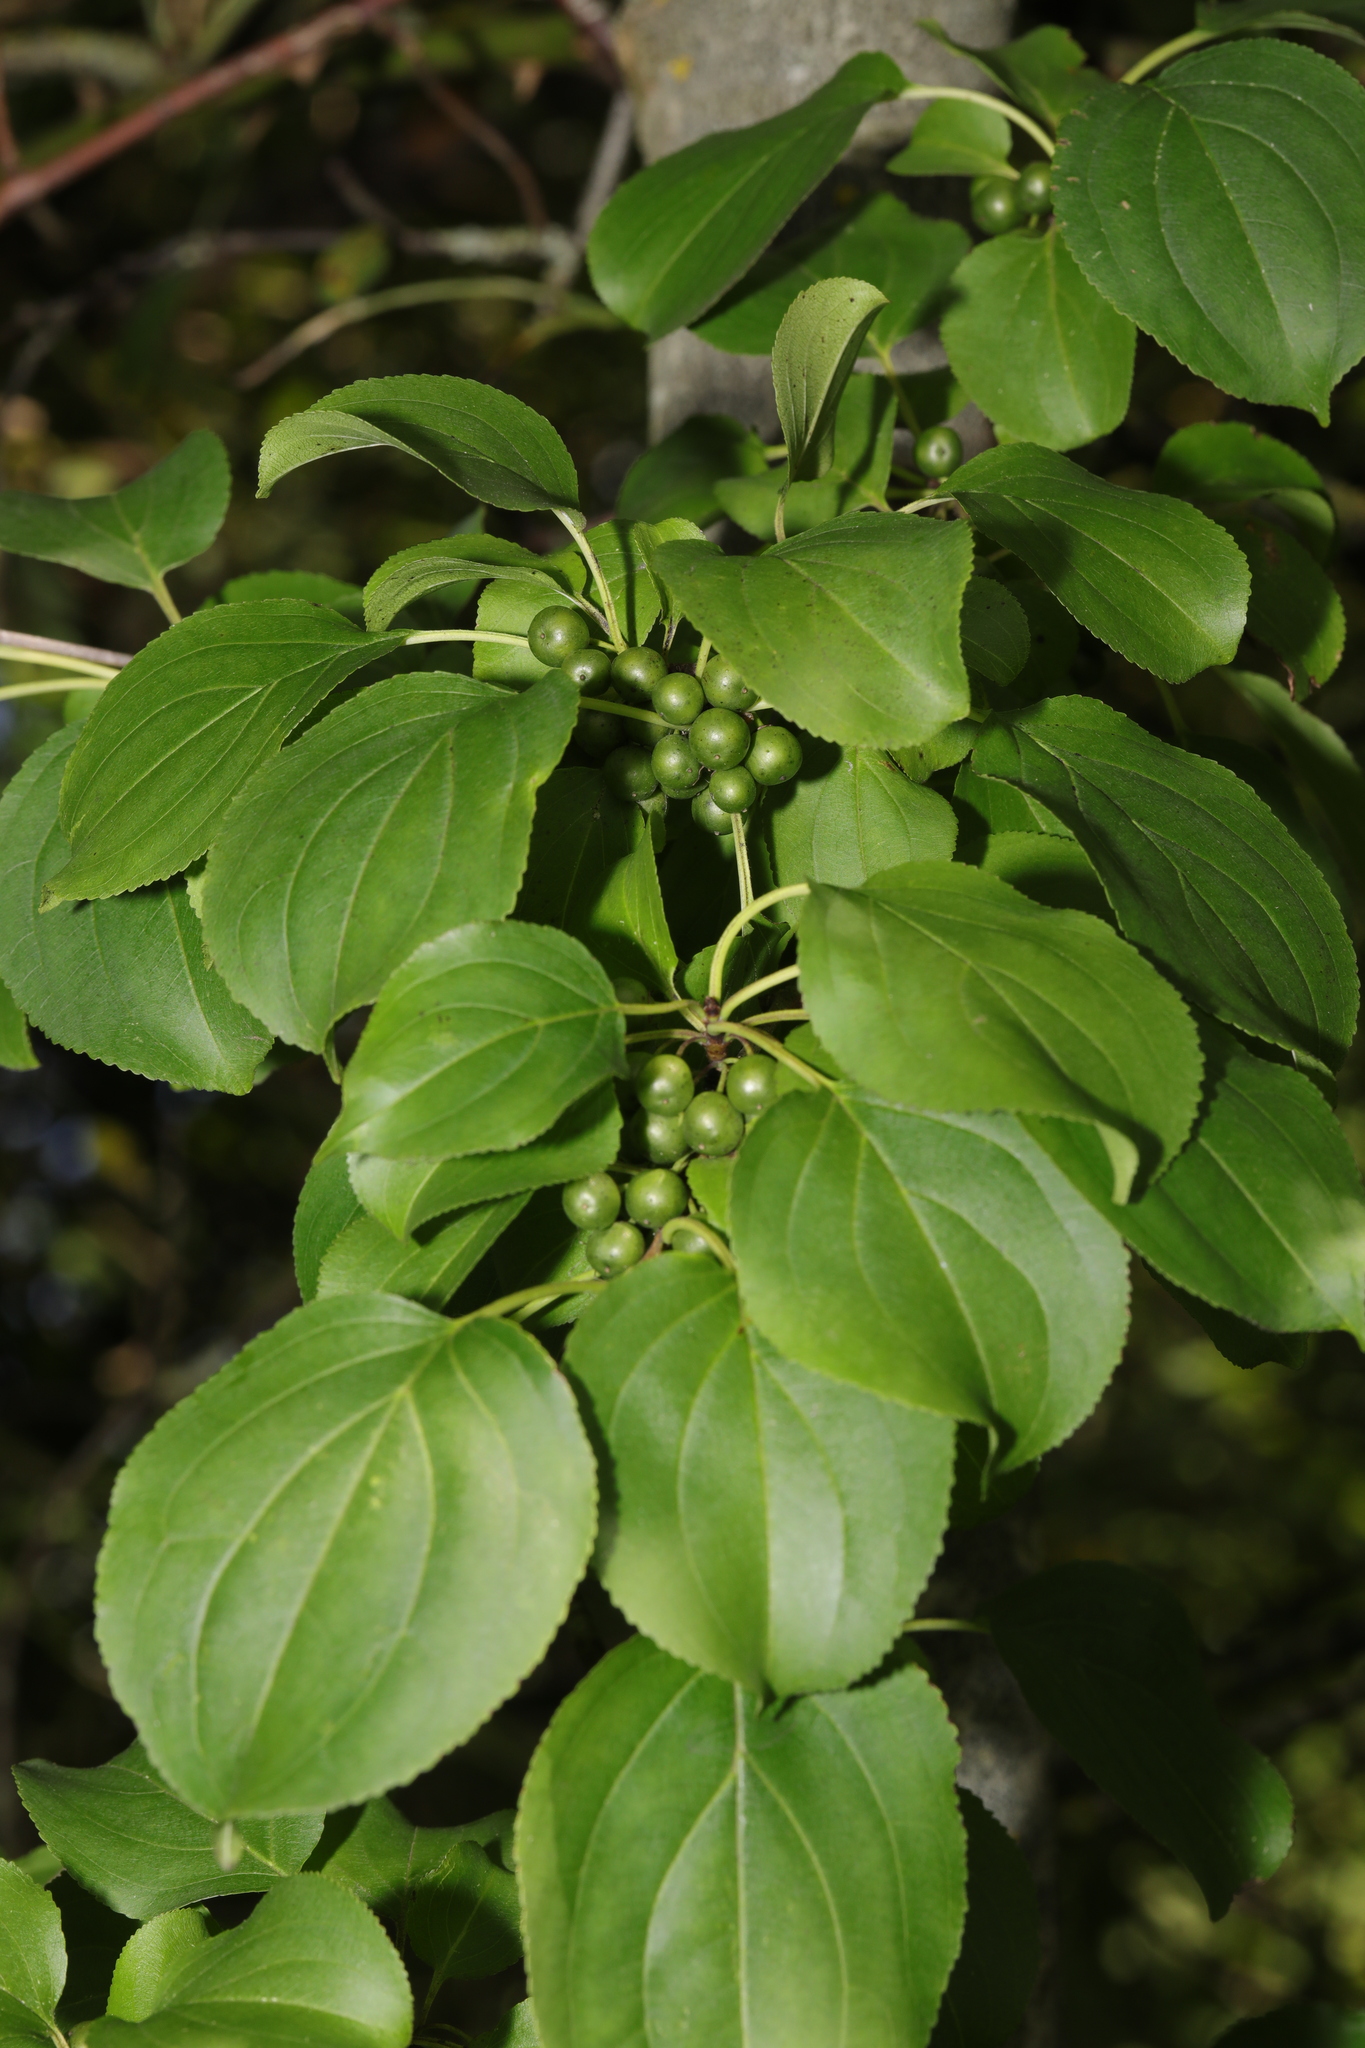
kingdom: Plantae
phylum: Tracheophyta
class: Magnoliopsida
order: Rosales
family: Rhamnaceae
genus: Rhamnus
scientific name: Rhamnus cathartica
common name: Common buckthorn
